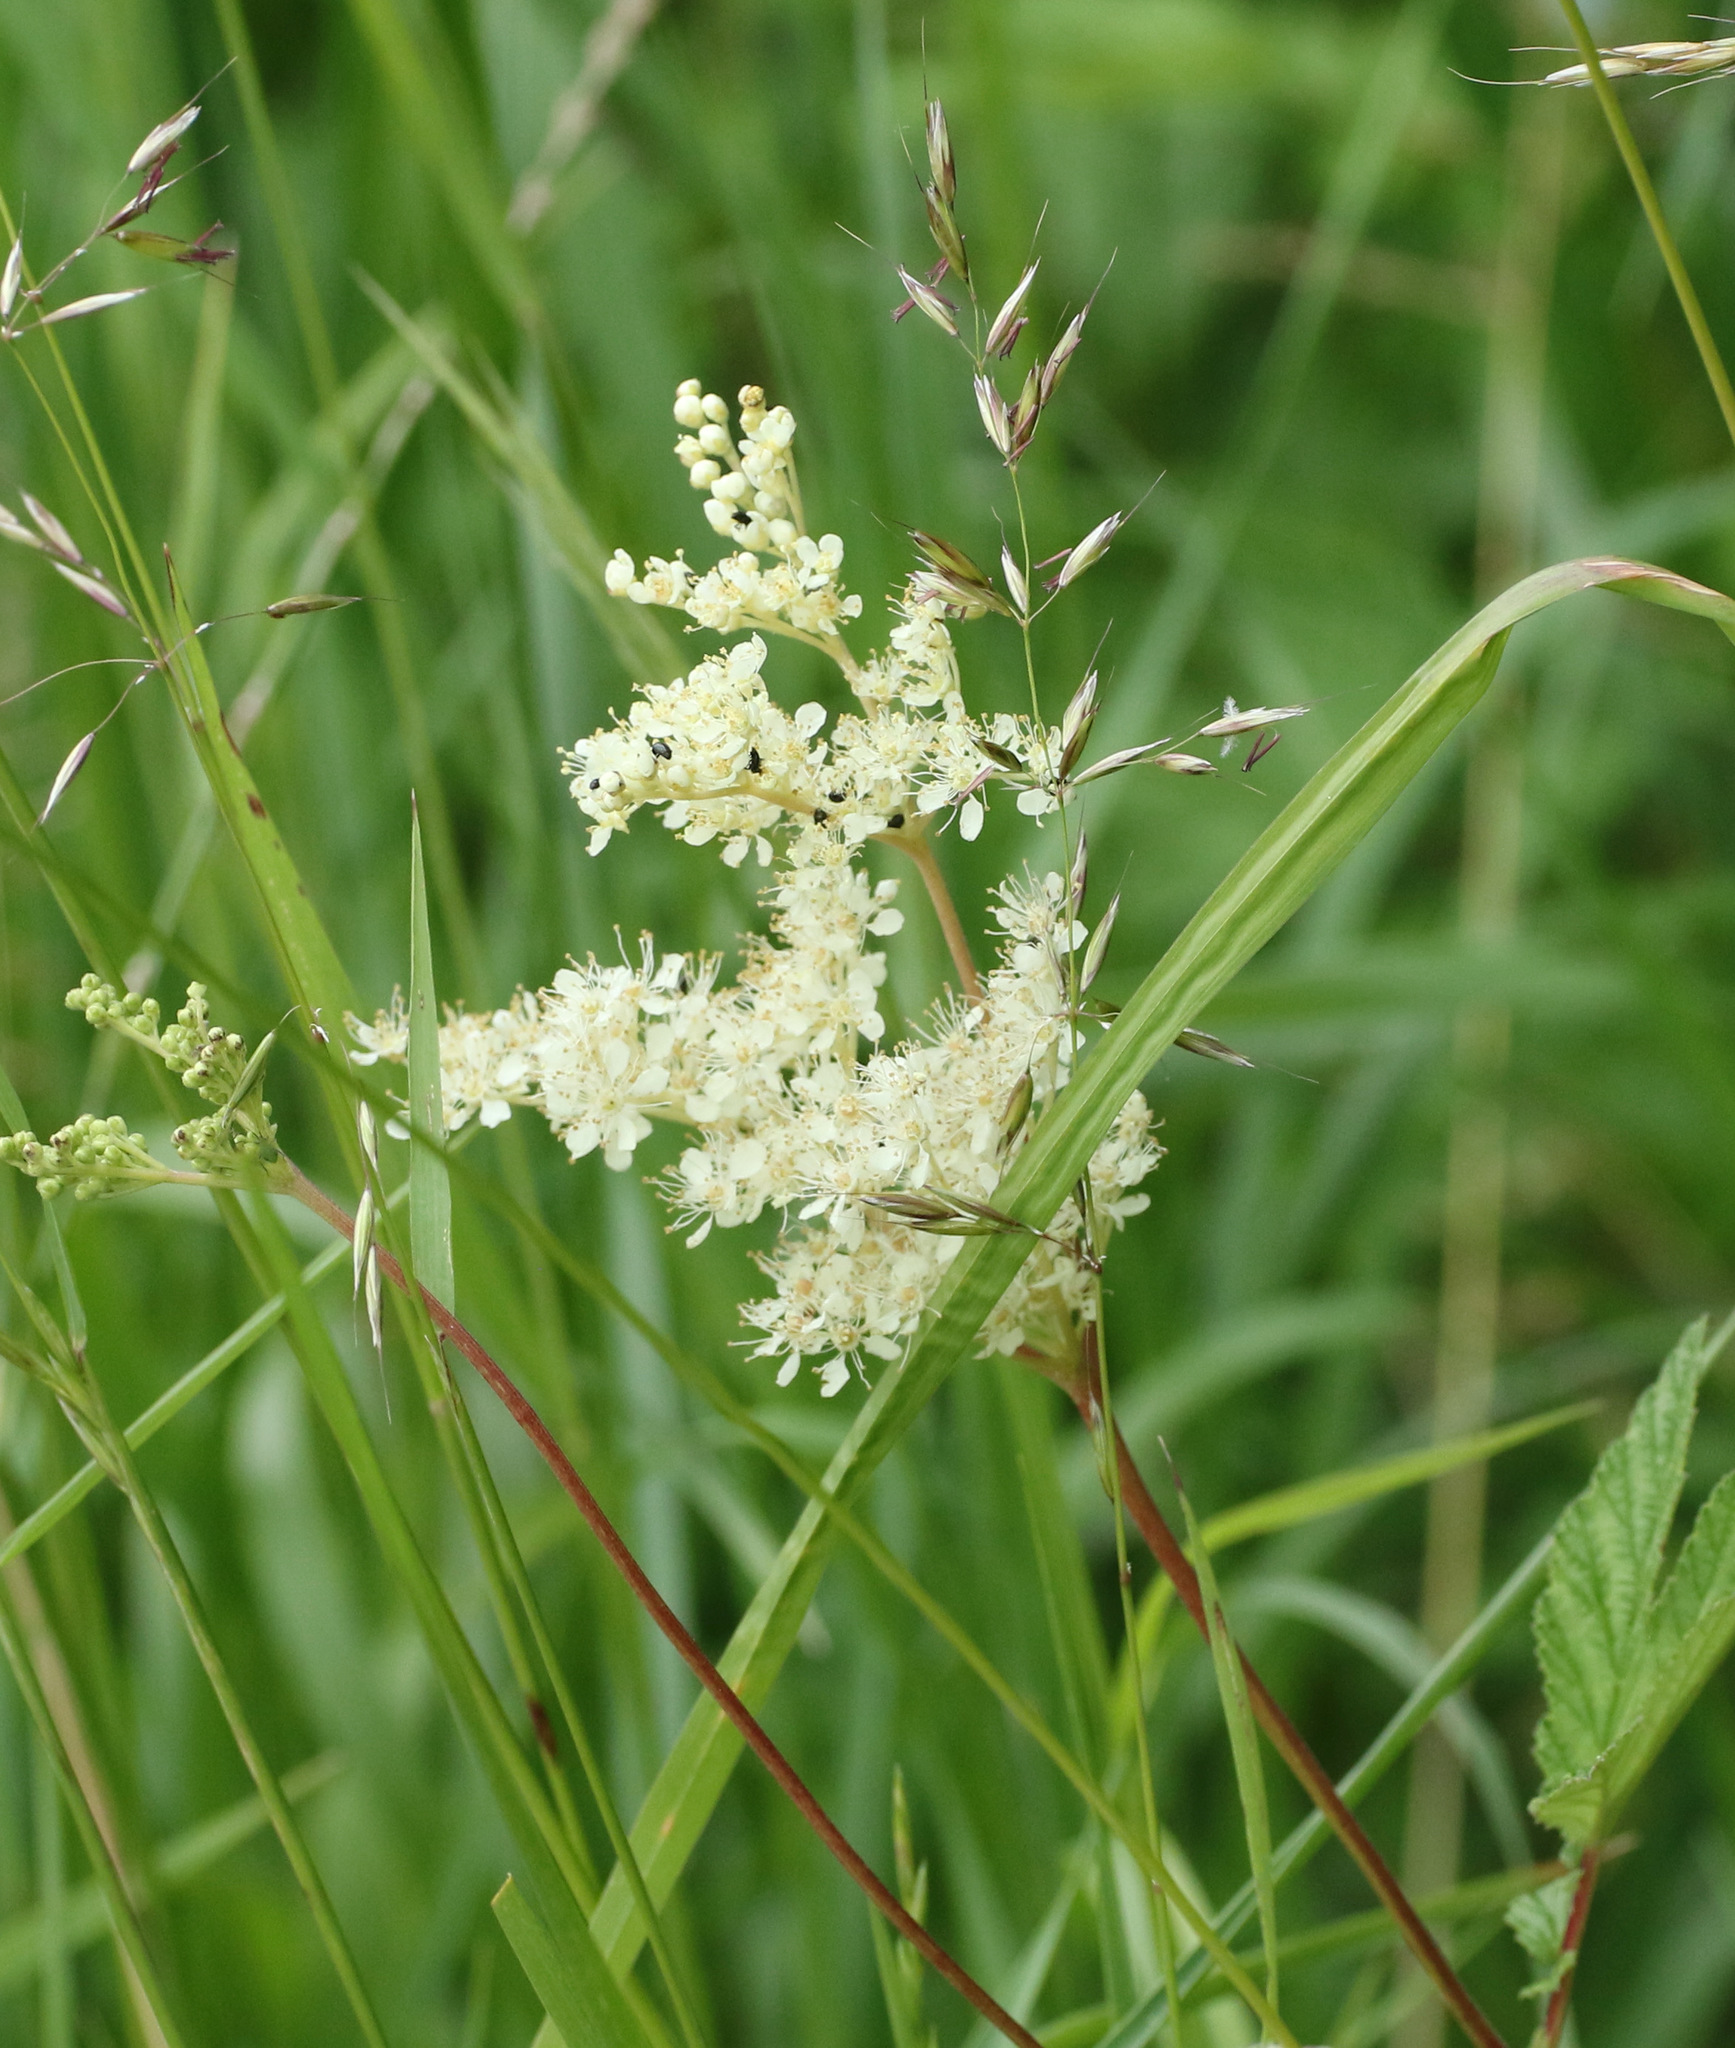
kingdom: Plantae
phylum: Tracheophyta
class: Magnoliopsida
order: Rosales
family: Rosaceae
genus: Filipendula
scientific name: Filipendula ulmaria
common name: Meadowsweet
